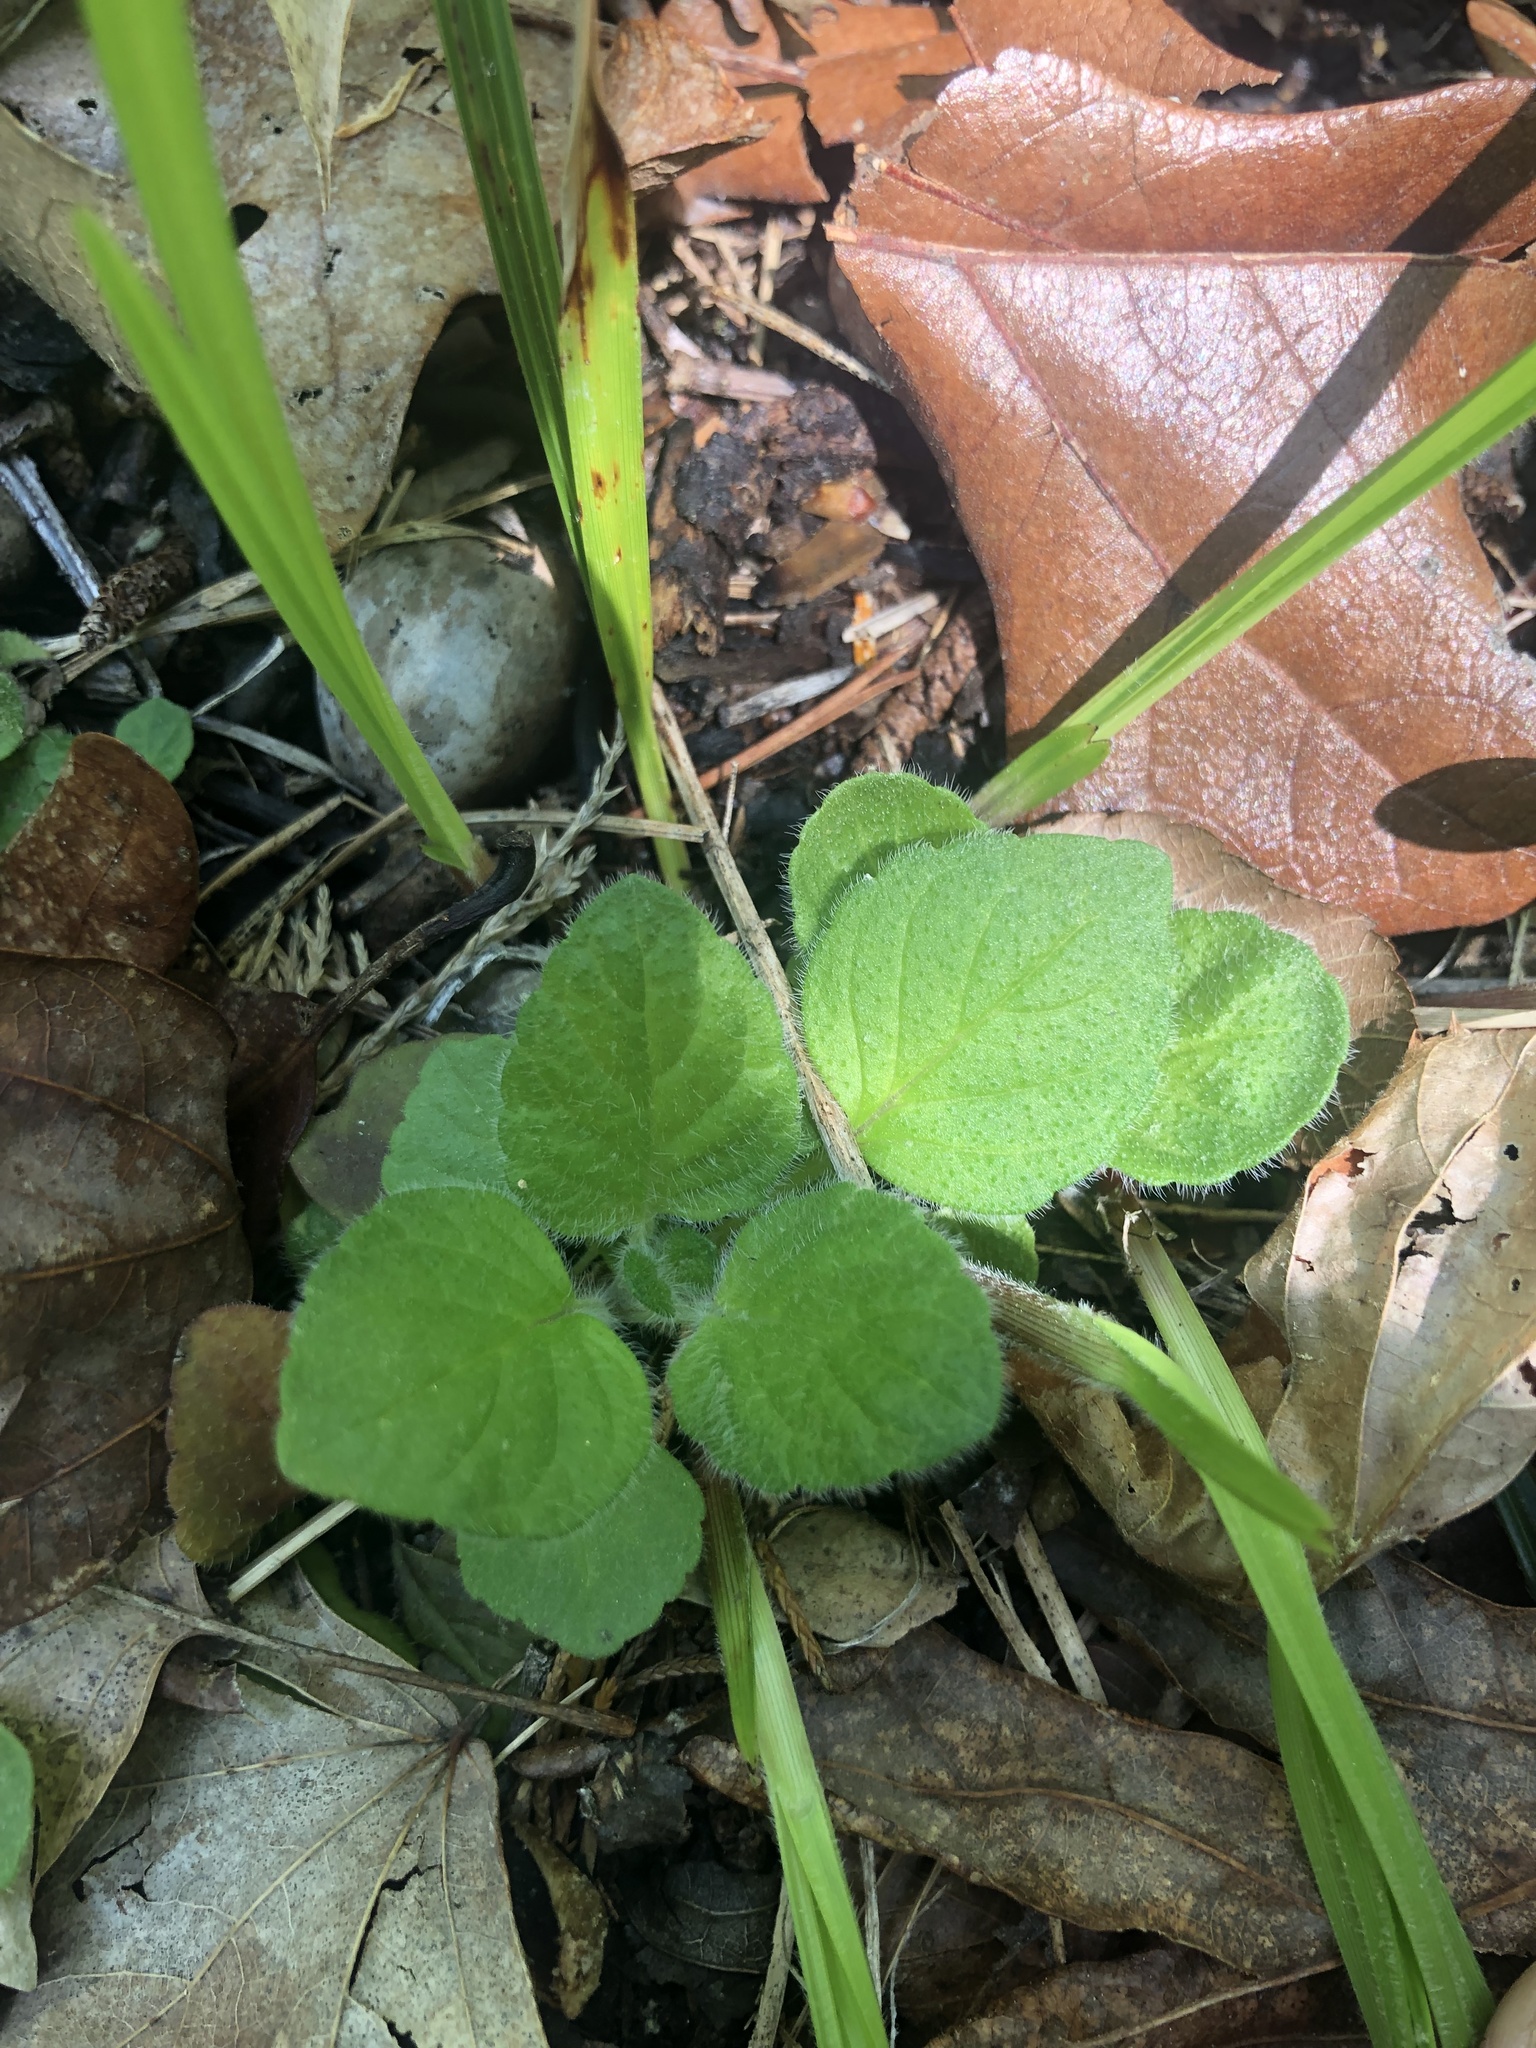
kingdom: Plantae
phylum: Tracheophyta
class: Magnoliopsida
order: Lamiales
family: Lamiaceae
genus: Blephilia
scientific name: Blephilia ciliata
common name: Downy blephilia
